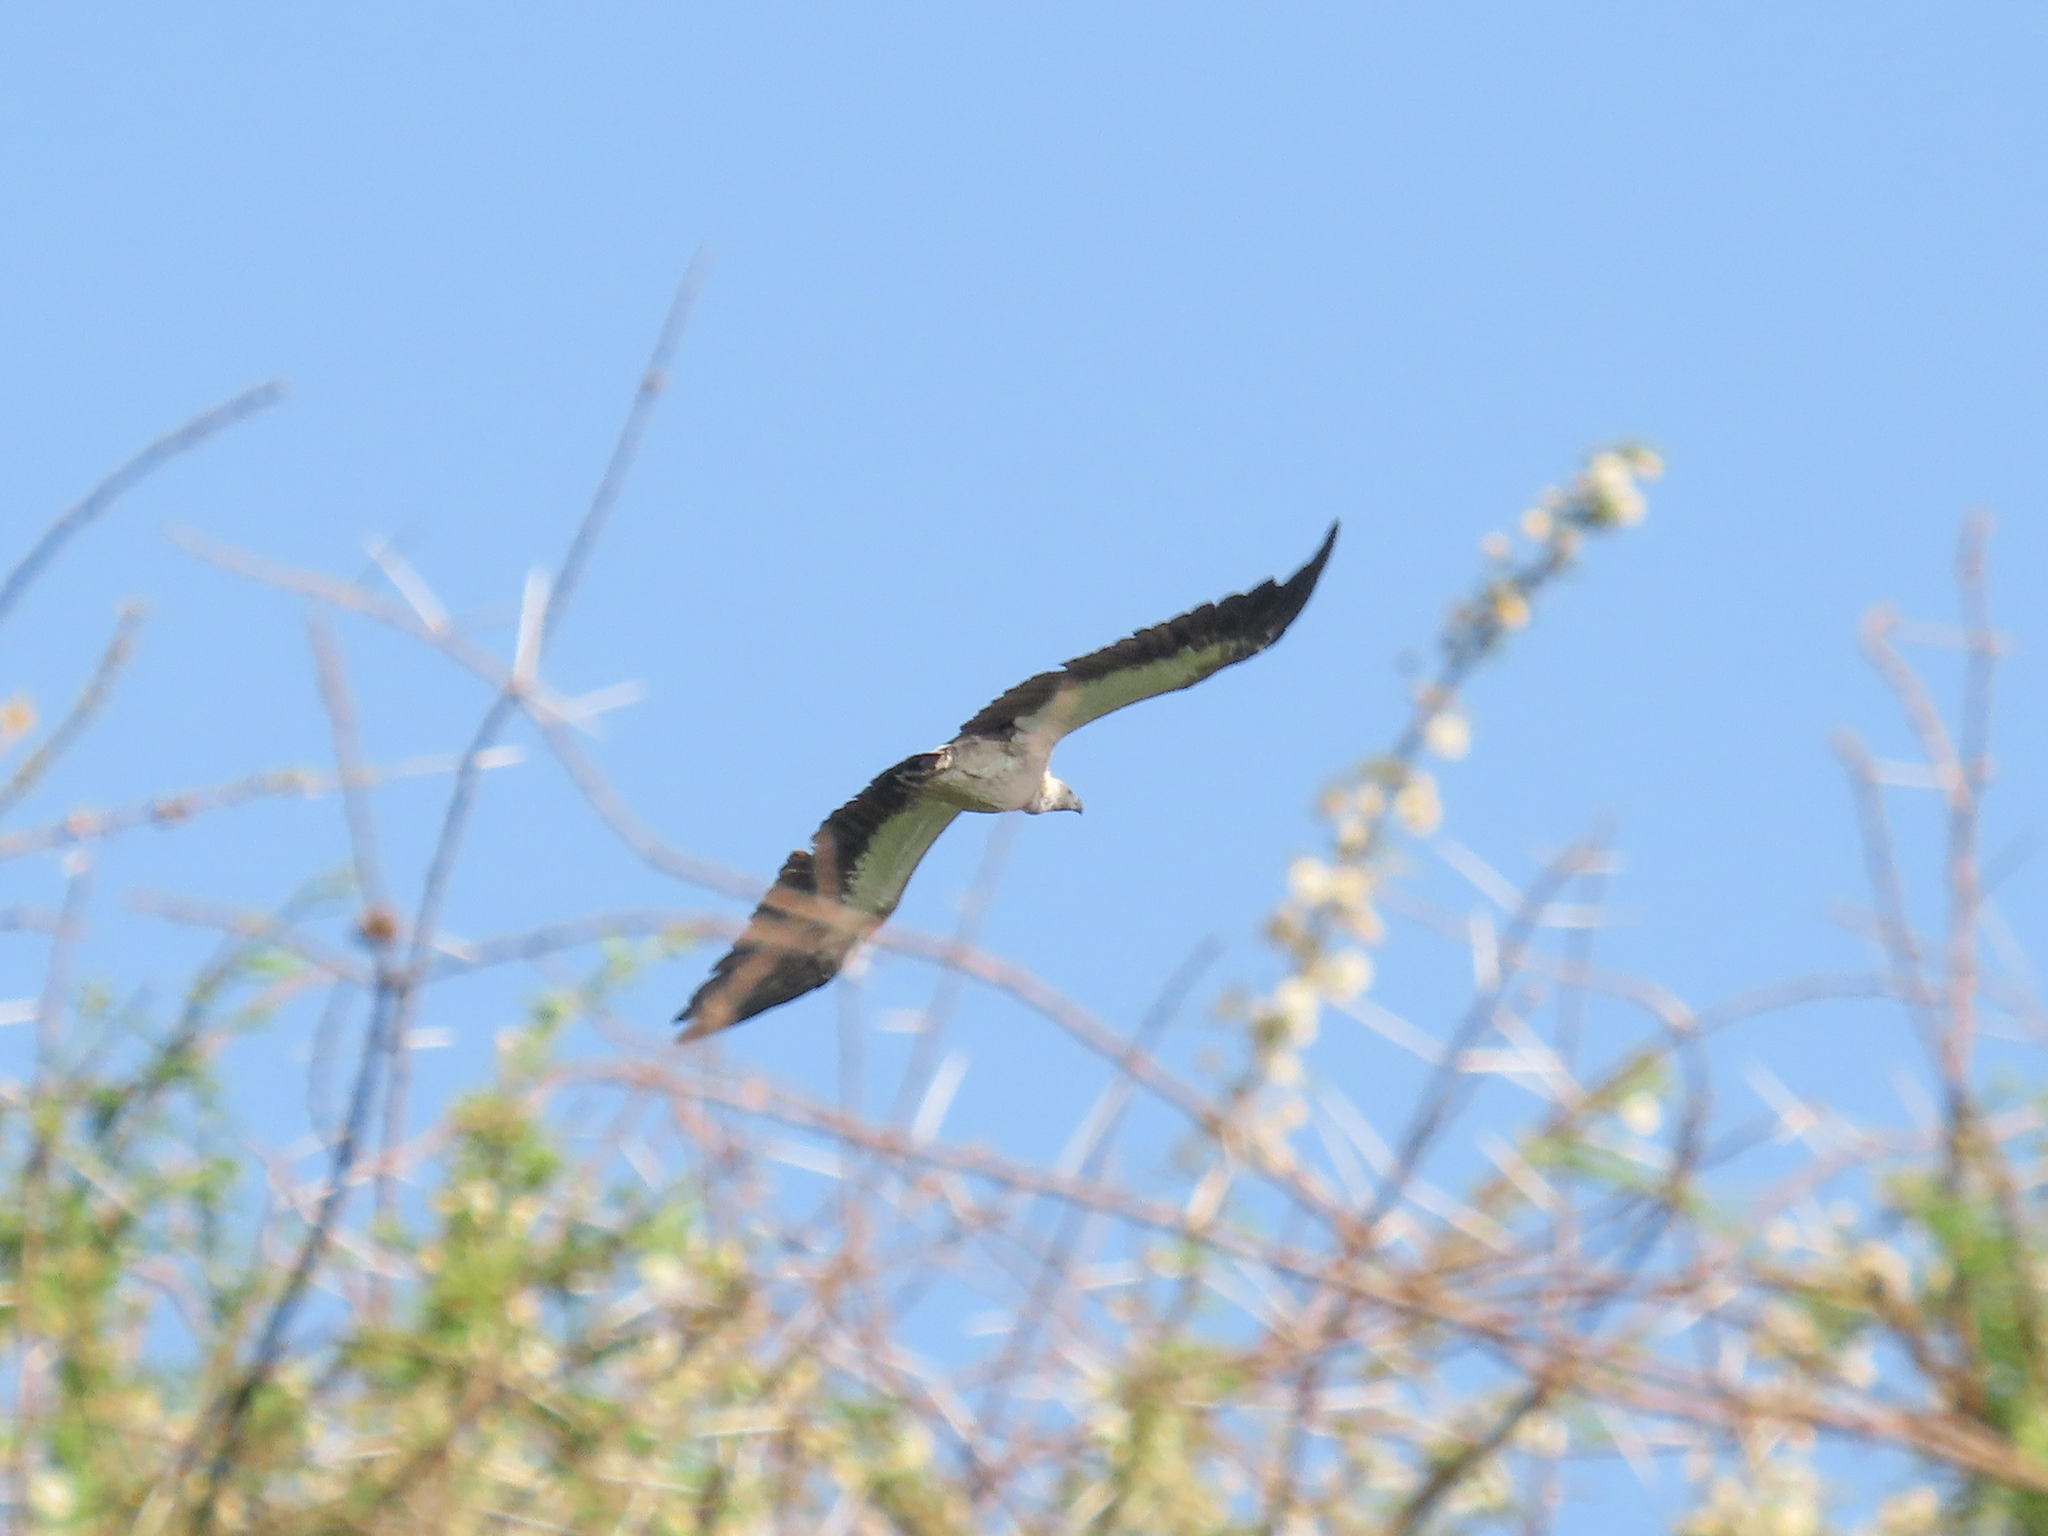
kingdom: Animalia
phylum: Chordata
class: Aves
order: Accipitriformes
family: Accipitridae
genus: Gyps
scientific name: Gyps africanus
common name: White-backed vulture
